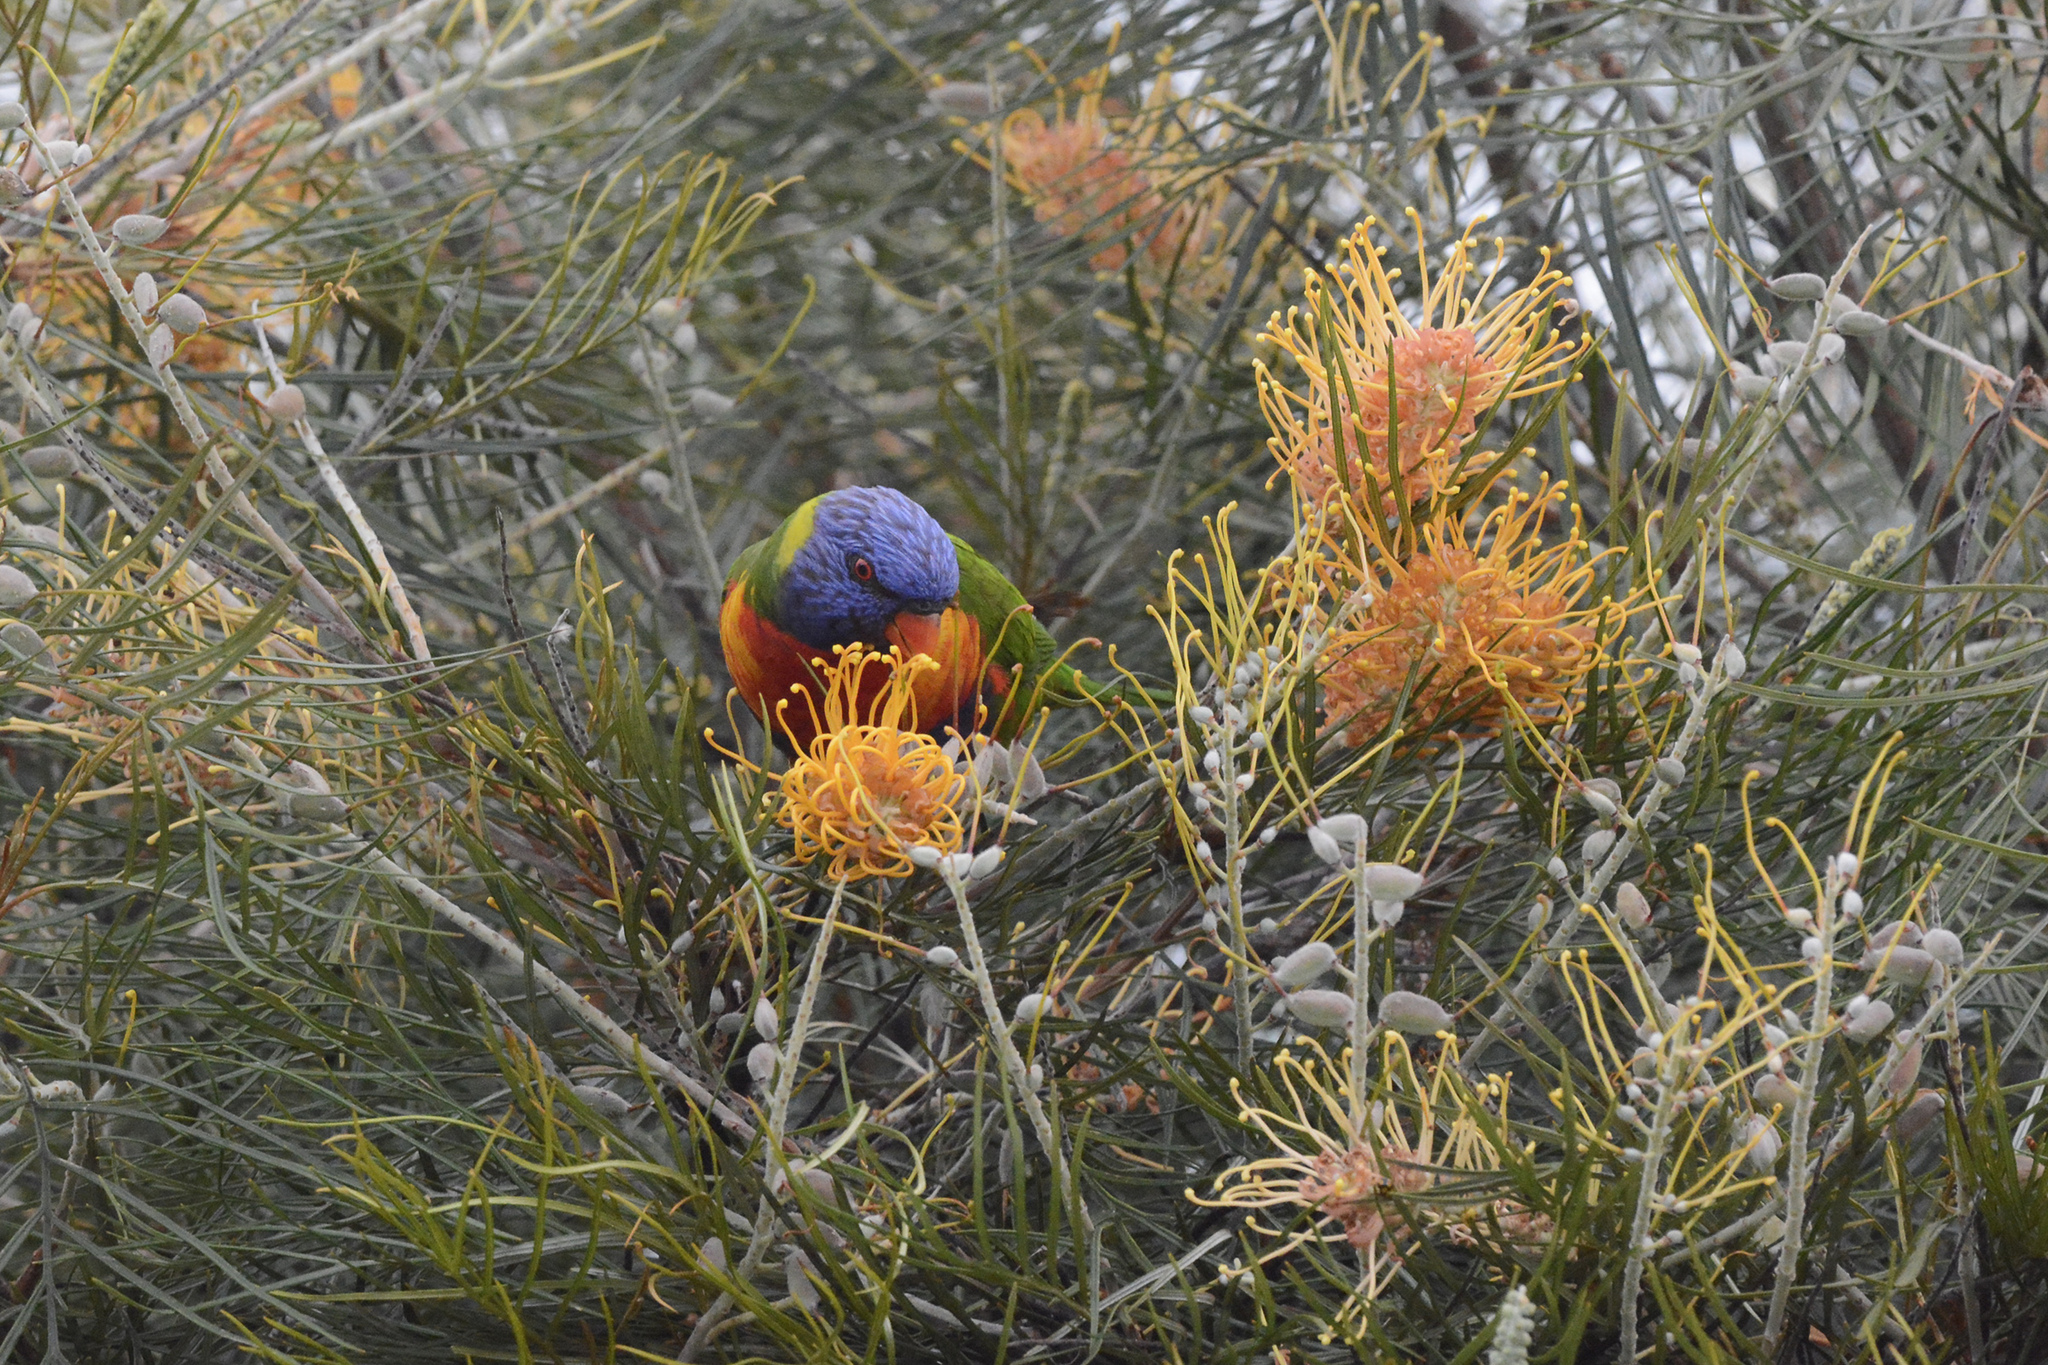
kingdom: Animalia
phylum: Chordata
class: Aves
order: Psittaciformes
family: Psittacidae
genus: Trichoglossus
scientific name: Trichoglossus haematodus
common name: Coconut lorikeet
